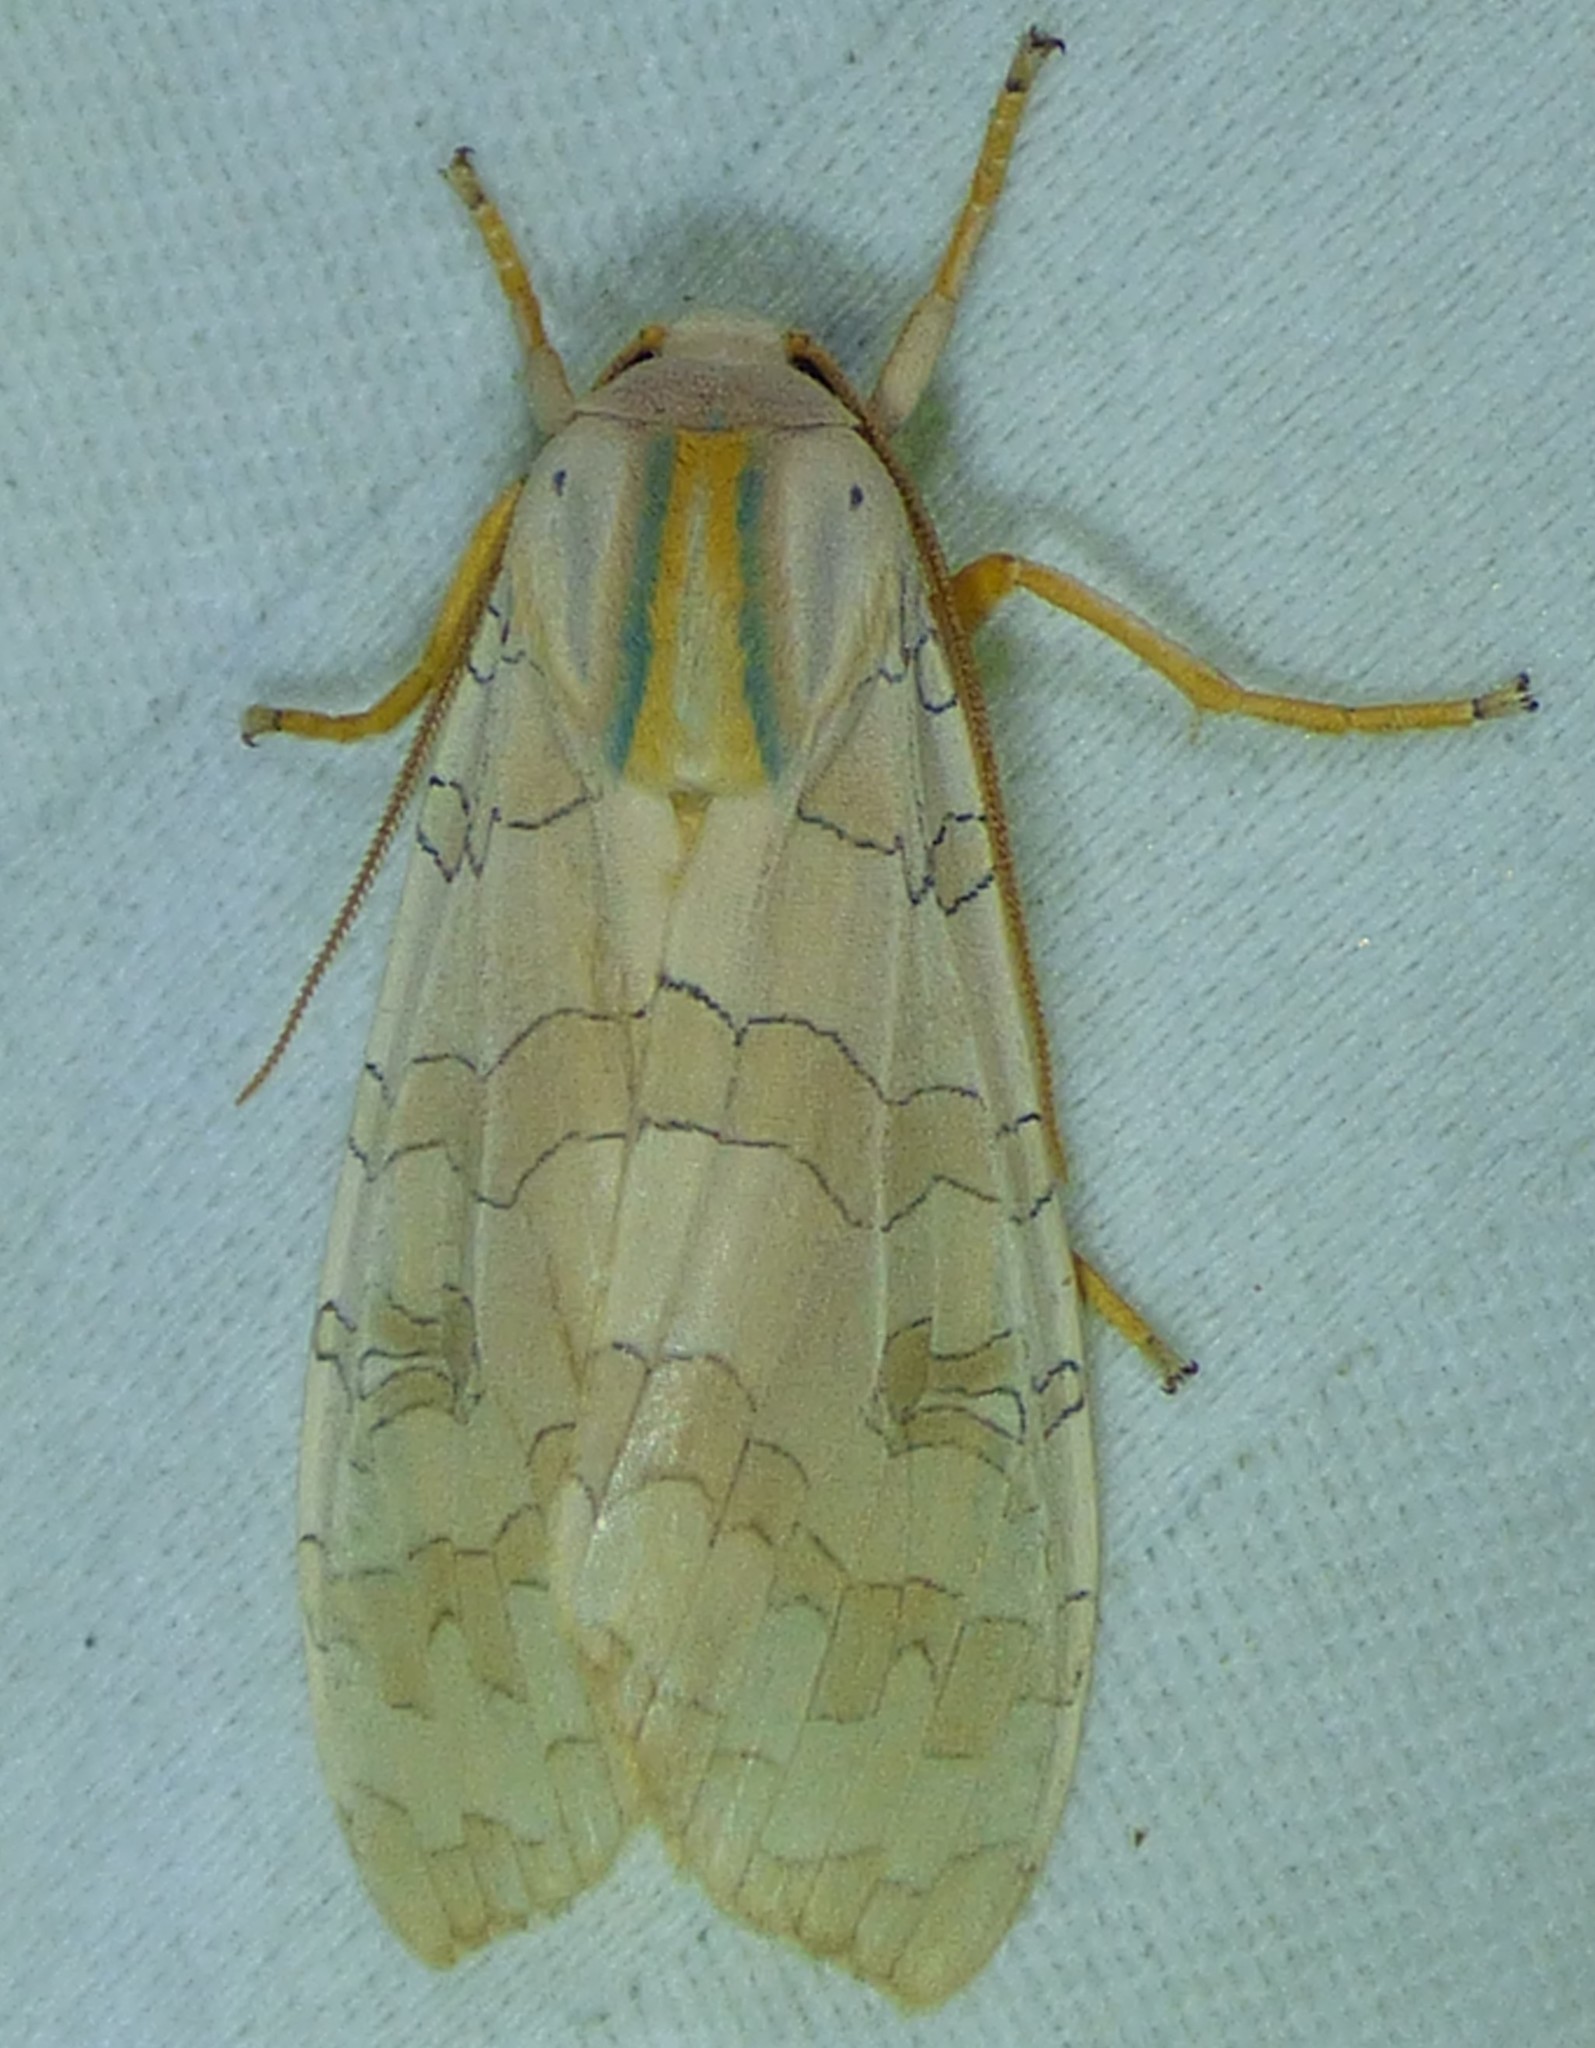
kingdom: Animalia
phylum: Arthropoda
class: Insecta
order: Lepidoptera
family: Erebidae
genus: Halysidota
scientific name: Halysidota
